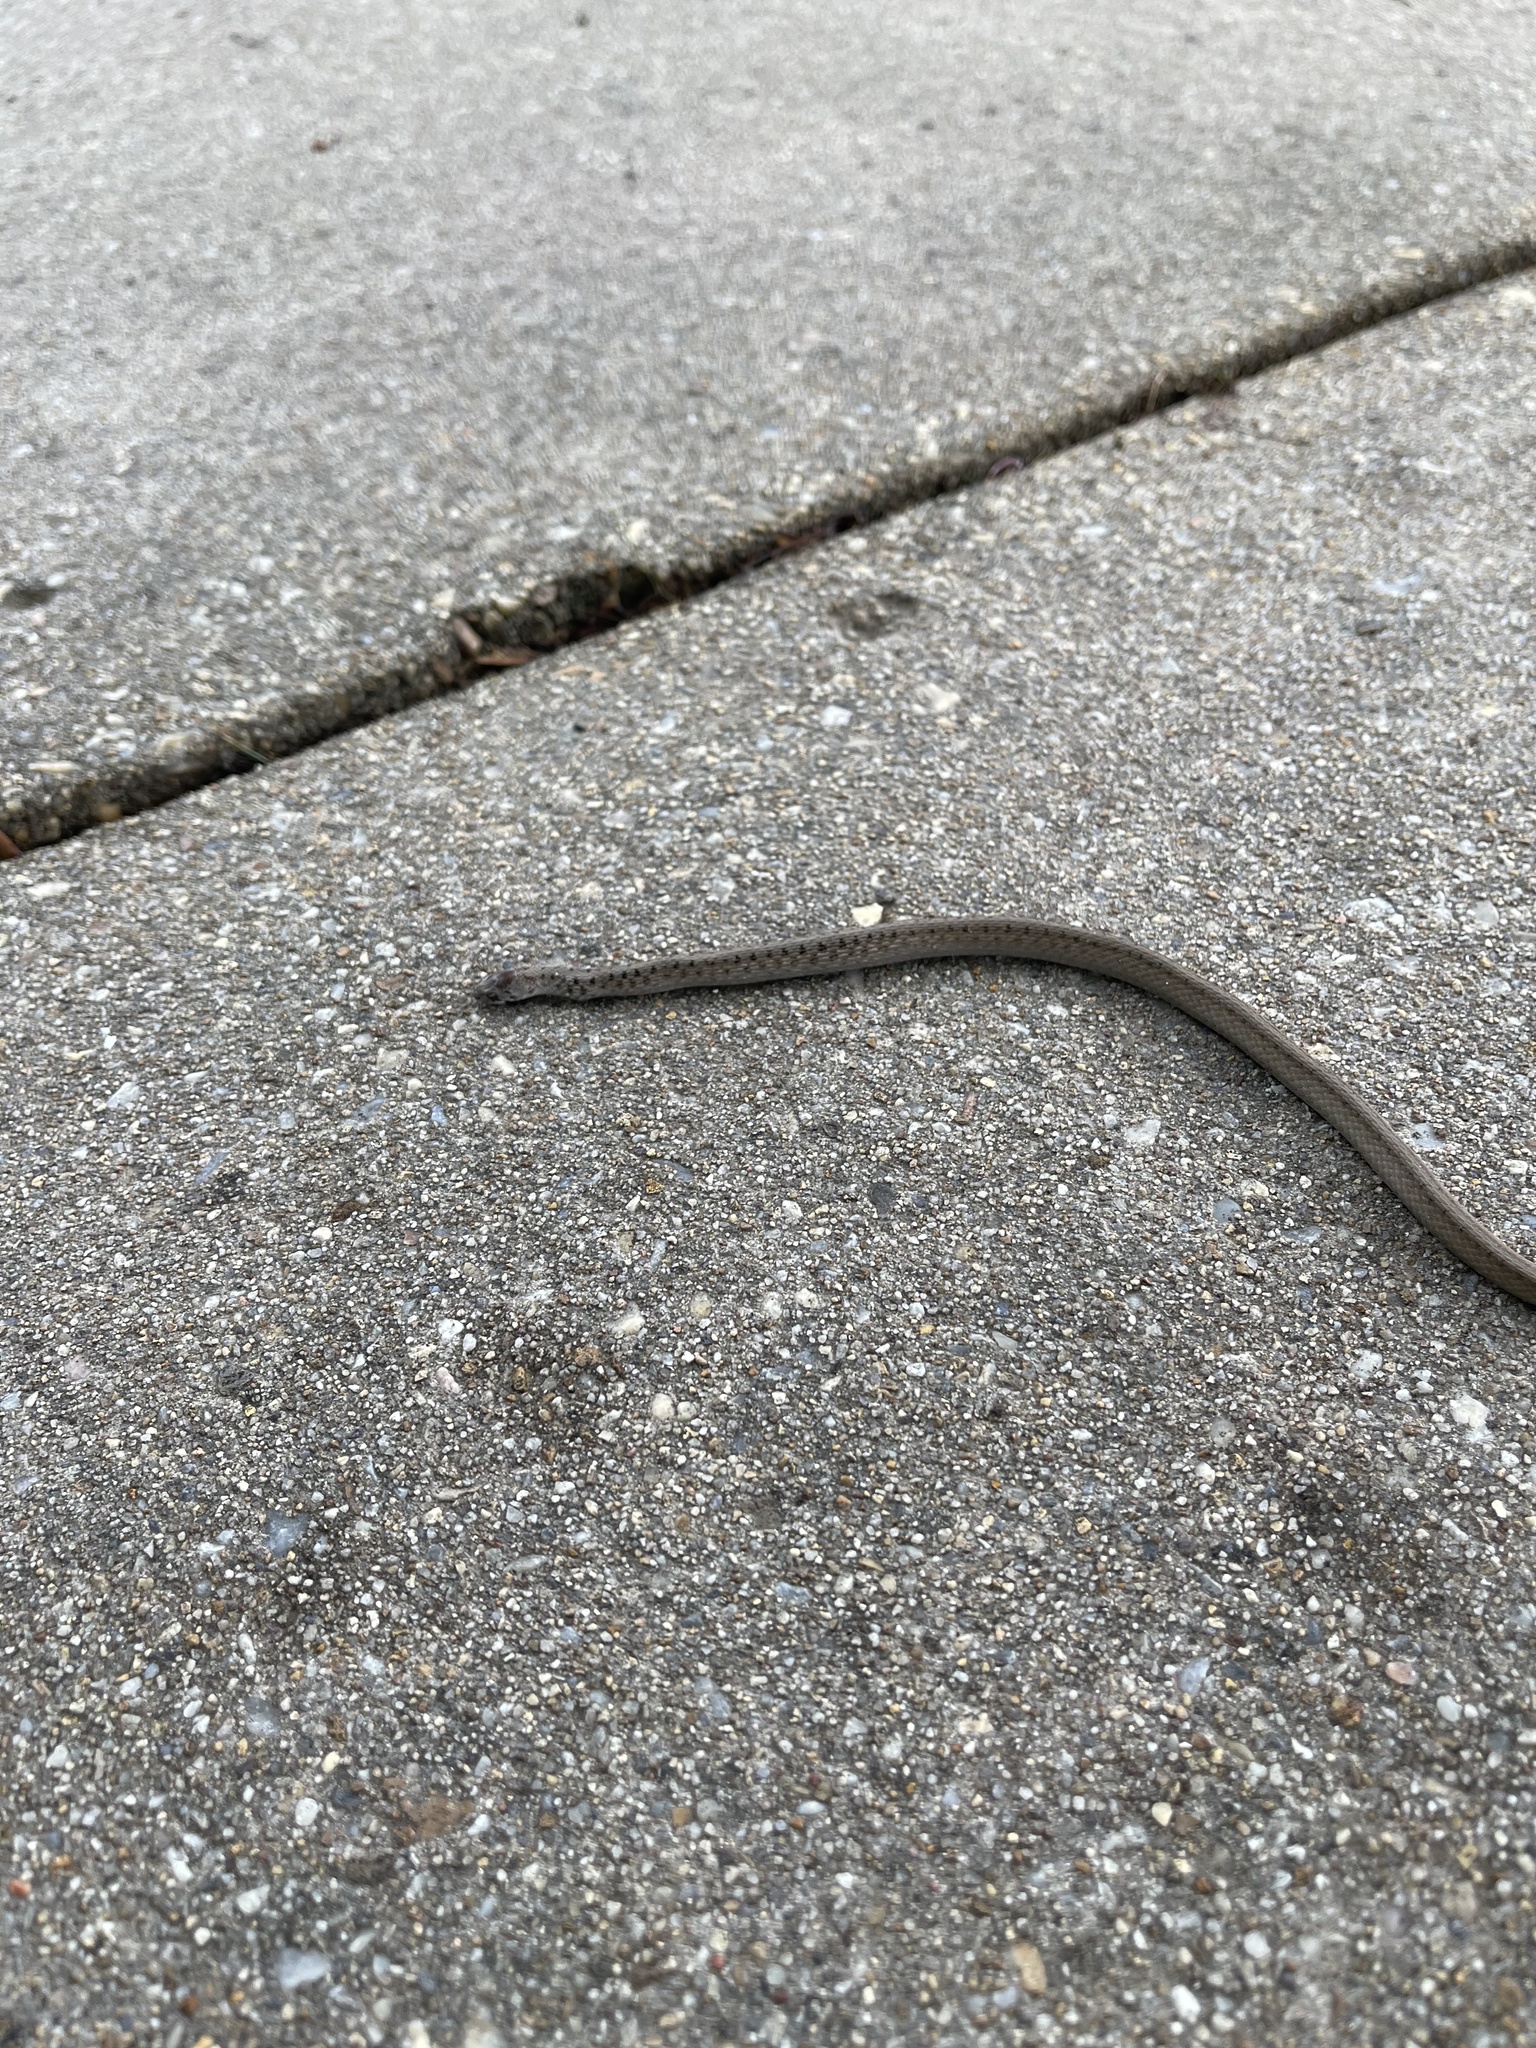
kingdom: Animalia
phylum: Chordata
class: Squamata
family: Colubridae
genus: Storeria
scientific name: Storeria dekayi
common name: (dekay’s) brown snake
